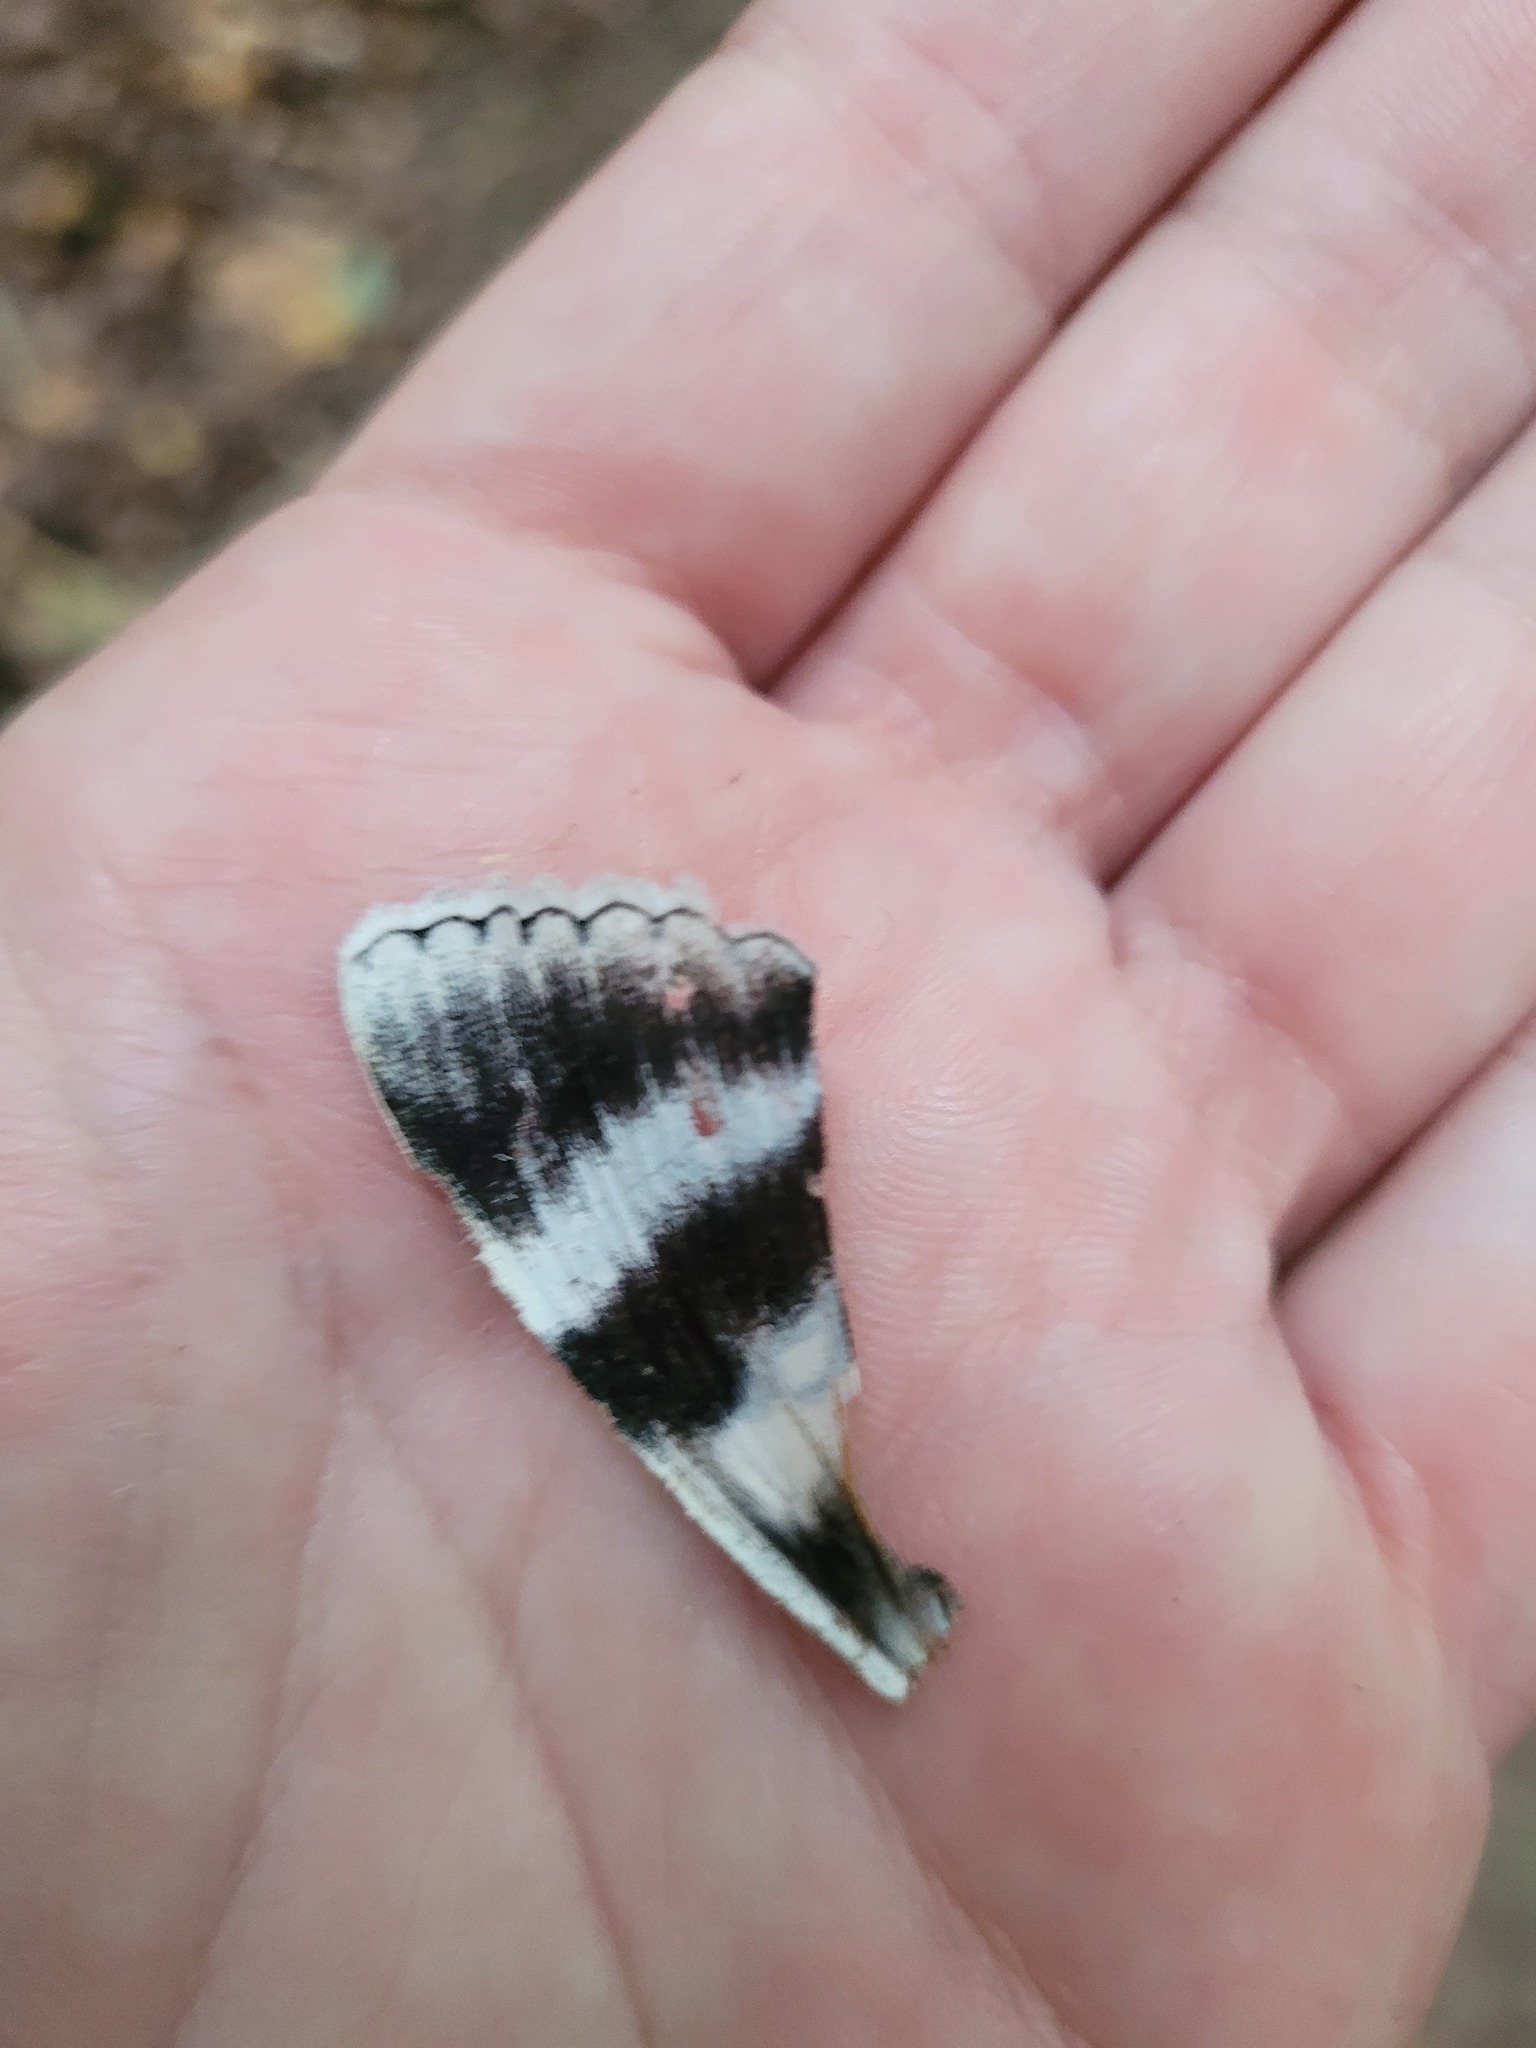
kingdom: Animalia
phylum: Arthropoda
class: Insecta
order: Lepidoptera
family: Erebidae
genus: Catocala
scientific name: Catocala relicta
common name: White underwing
